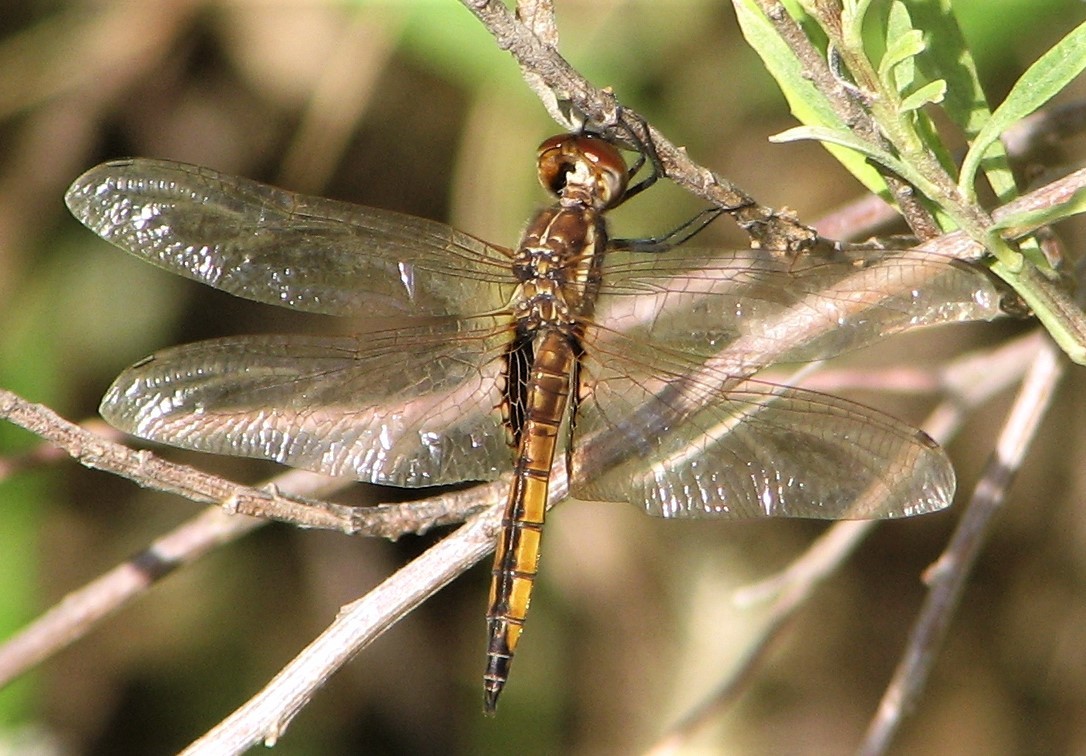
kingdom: Animalia
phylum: Arthropoda
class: Insecta
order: Odonata
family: Libellulidae
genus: Miathyria
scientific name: Miathyria marcella
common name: Hyacinth glider
